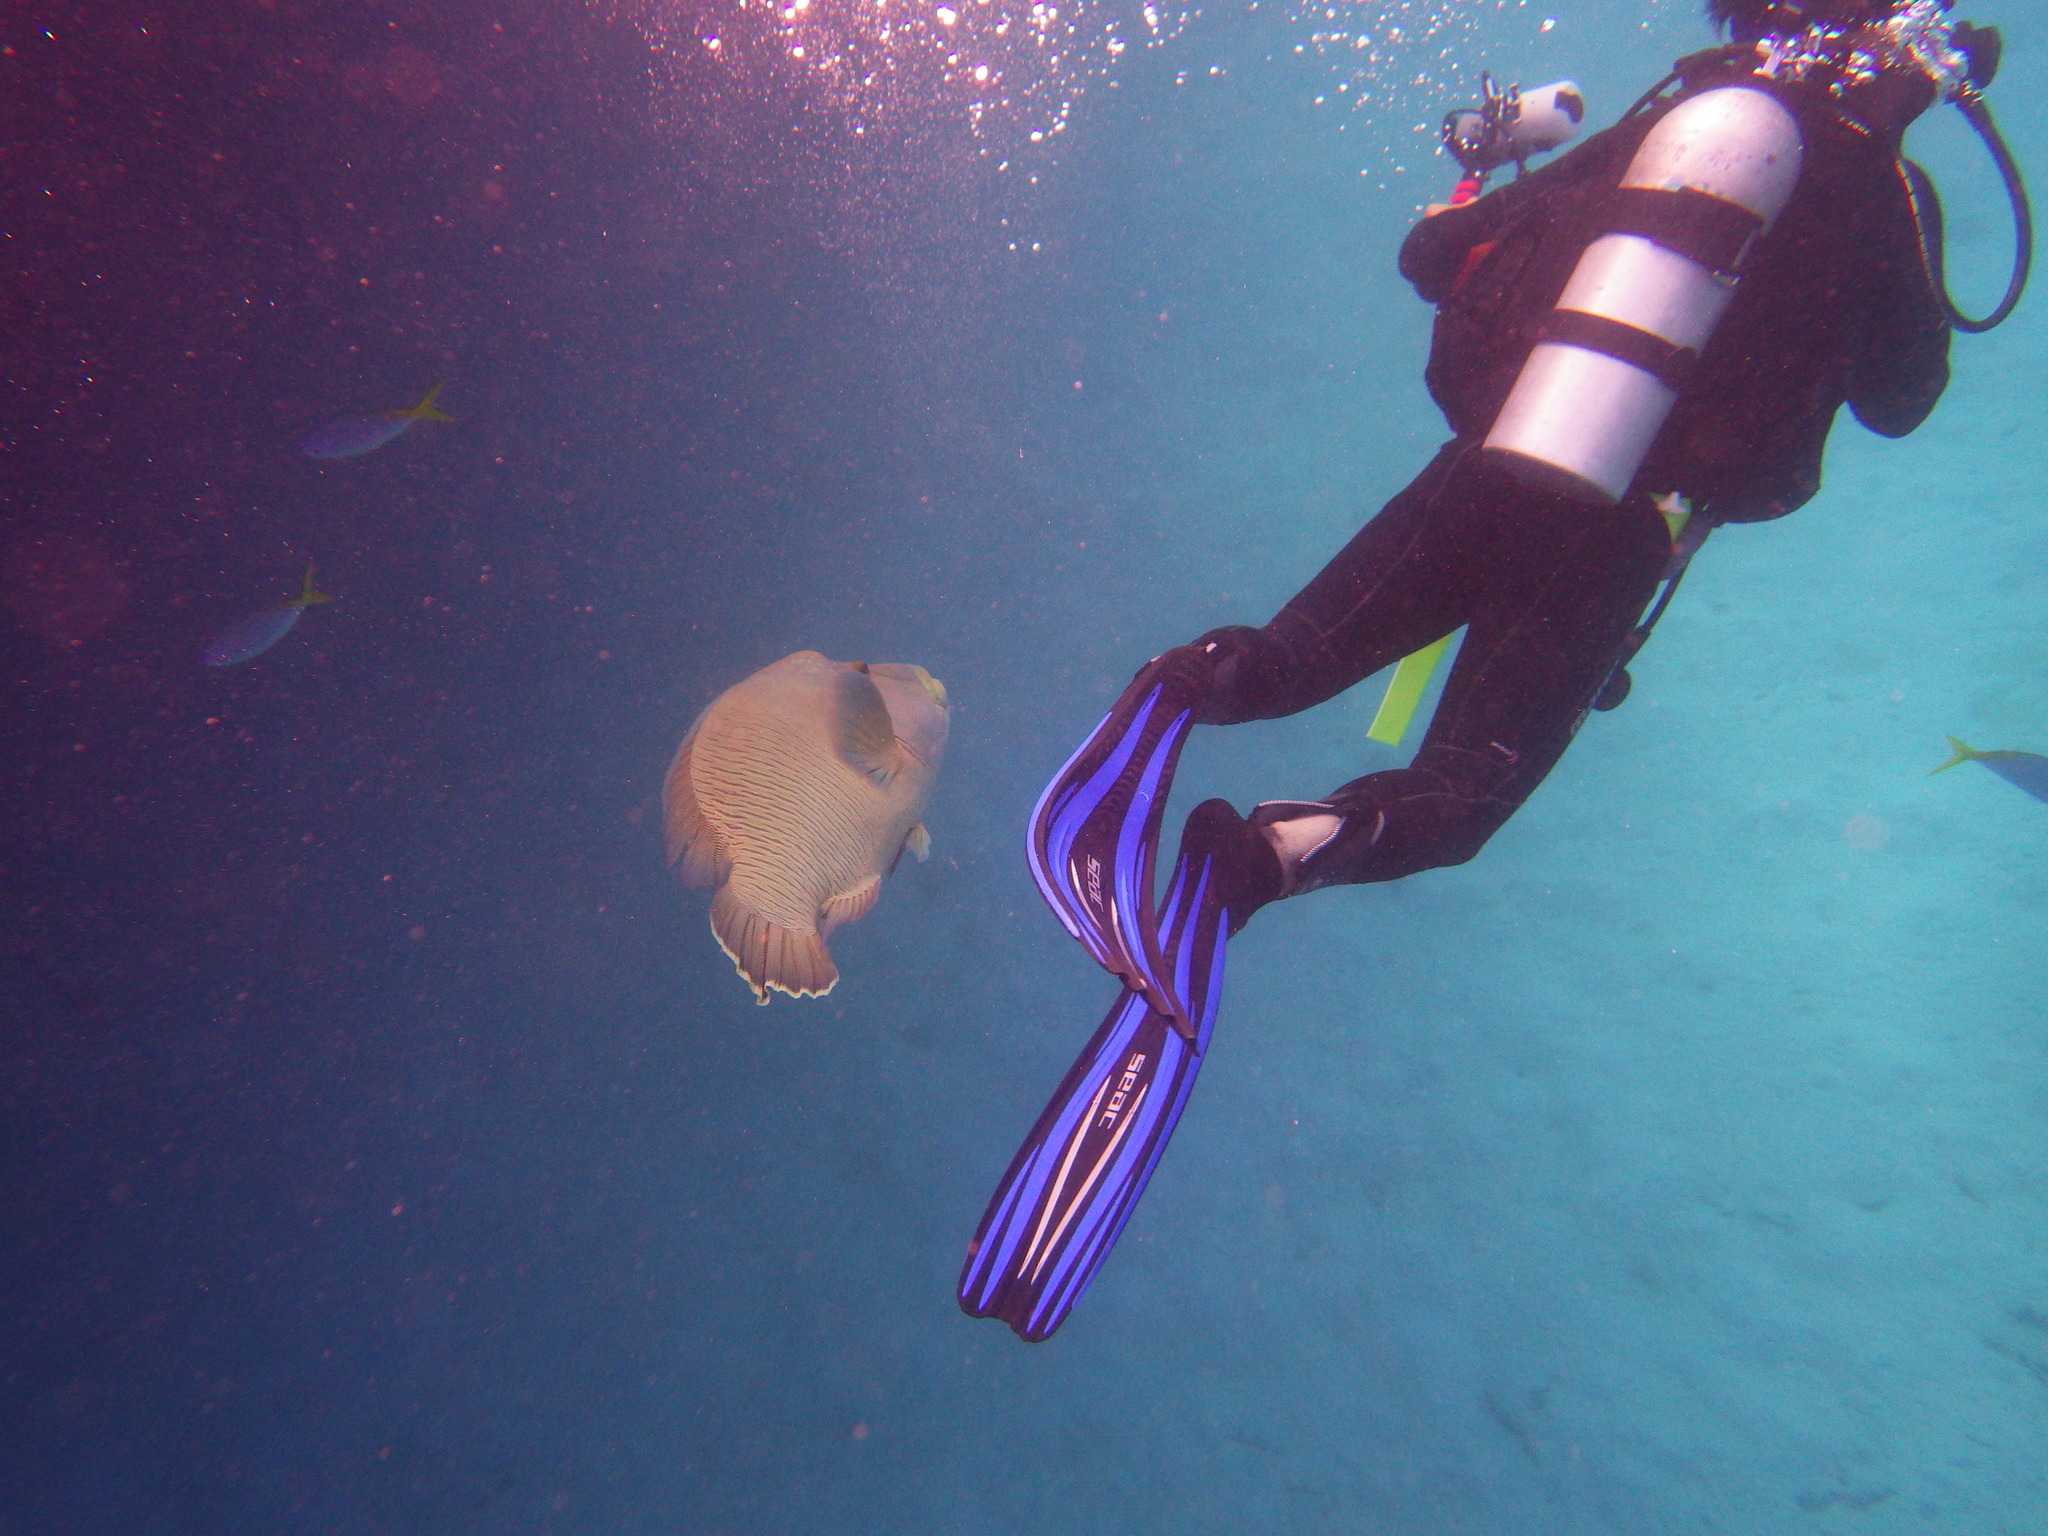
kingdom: Animalia
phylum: Chordata
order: Perciformes
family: Labridae
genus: Cheilinus
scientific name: Cheilinus undulatus
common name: Humphead wrasse
